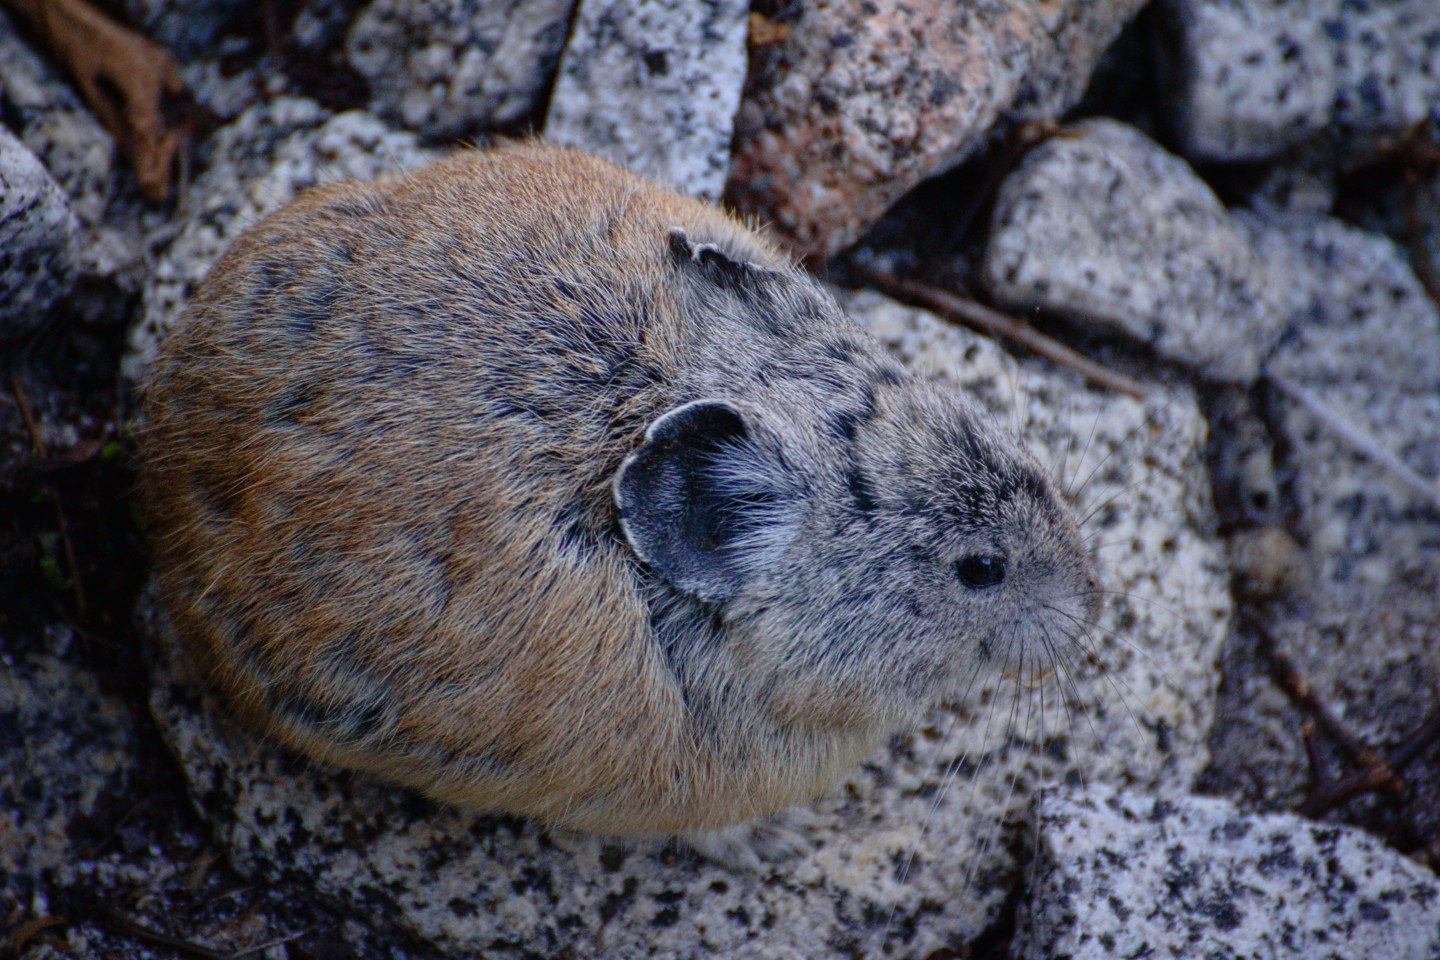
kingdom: Animalia
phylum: Chordata
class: Mammalia
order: Lagomorpha
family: Ochotonidae
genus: Ochotona
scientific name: Ochotona princeps
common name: American pika
